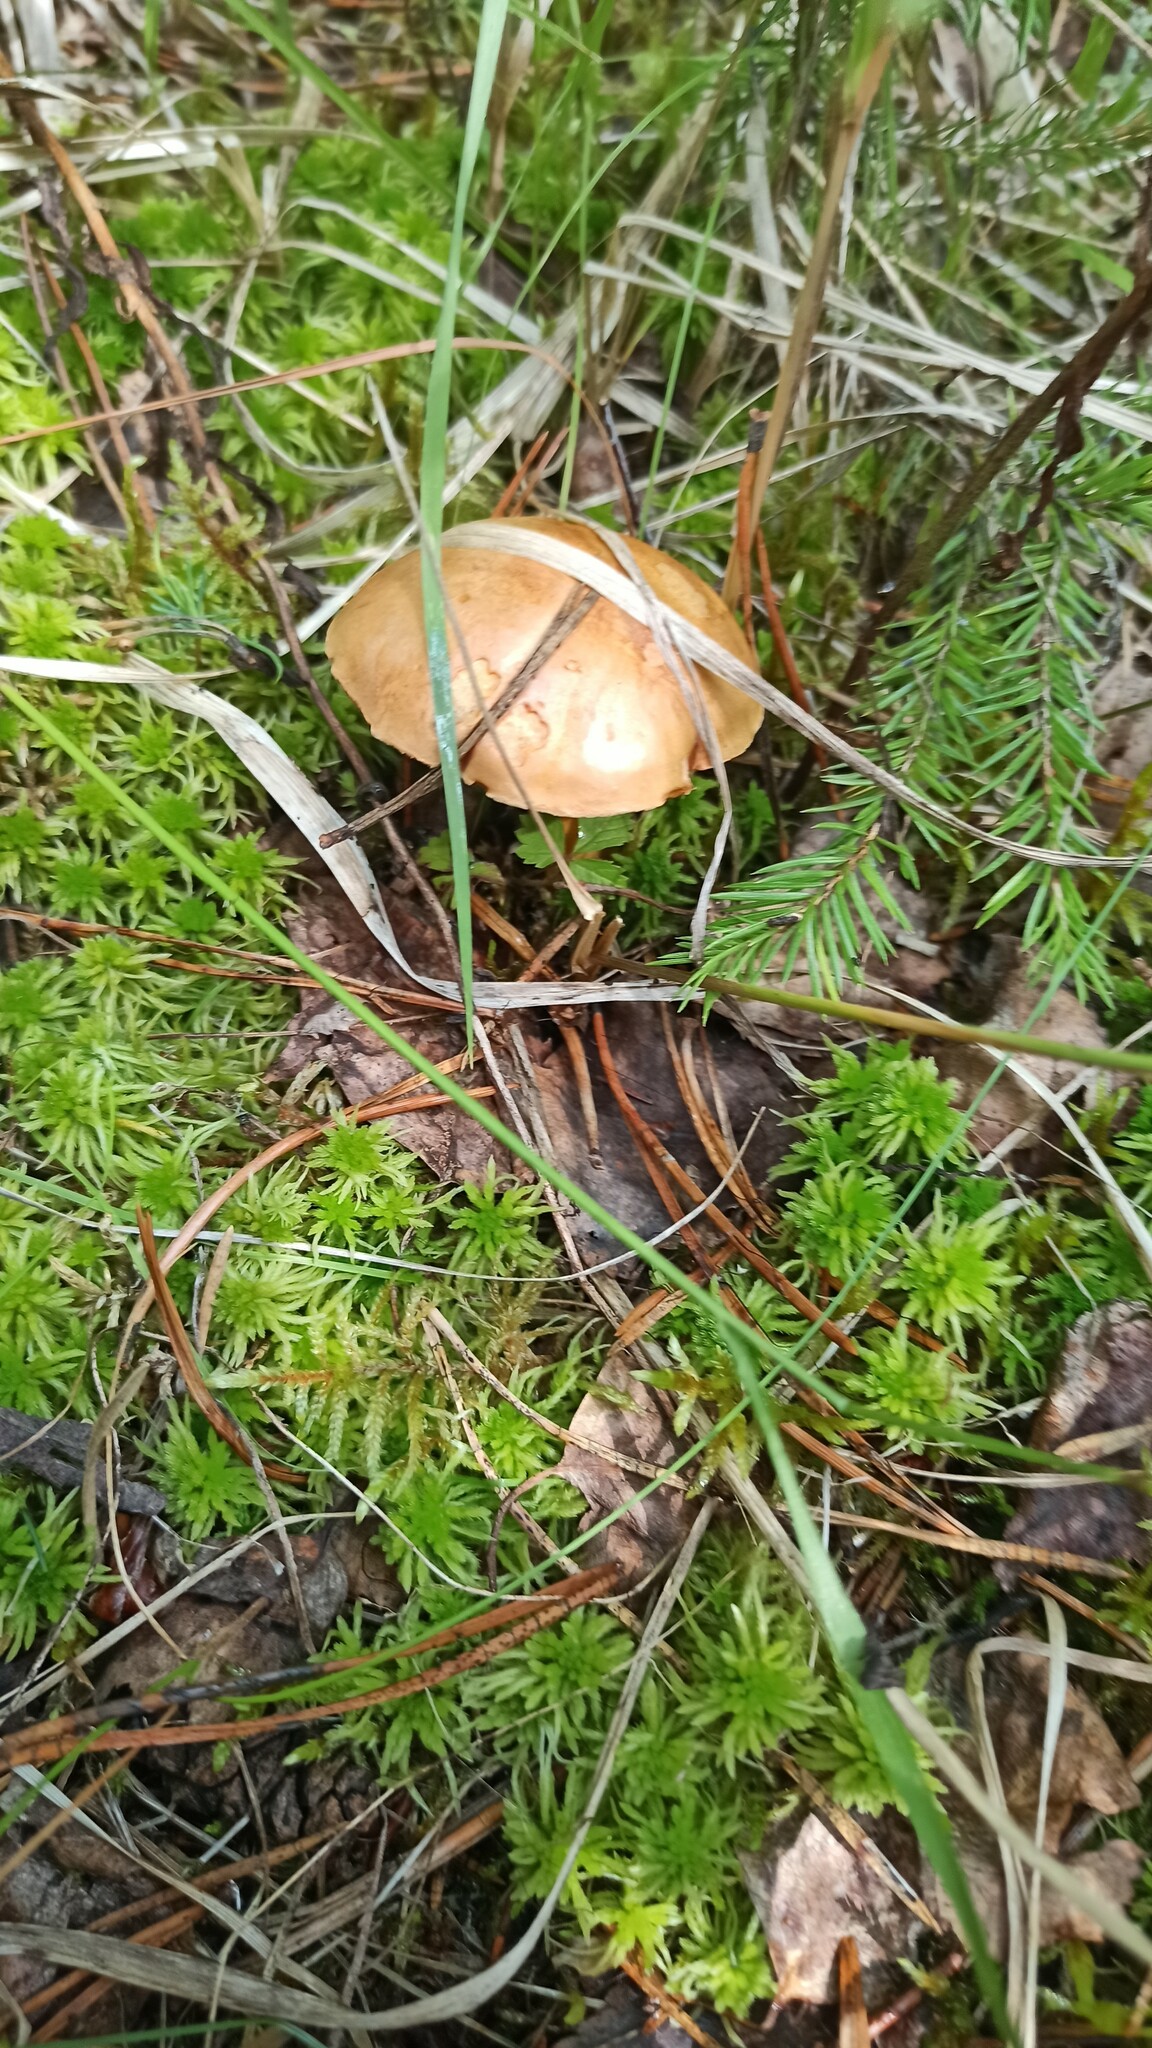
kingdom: Fungi
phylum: Basidiomycota
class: Agaricomycetes
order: Boletales
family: Boletaceae
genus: Chalciporus
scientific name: Chalciporus piperatus
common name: Peppery bolete
